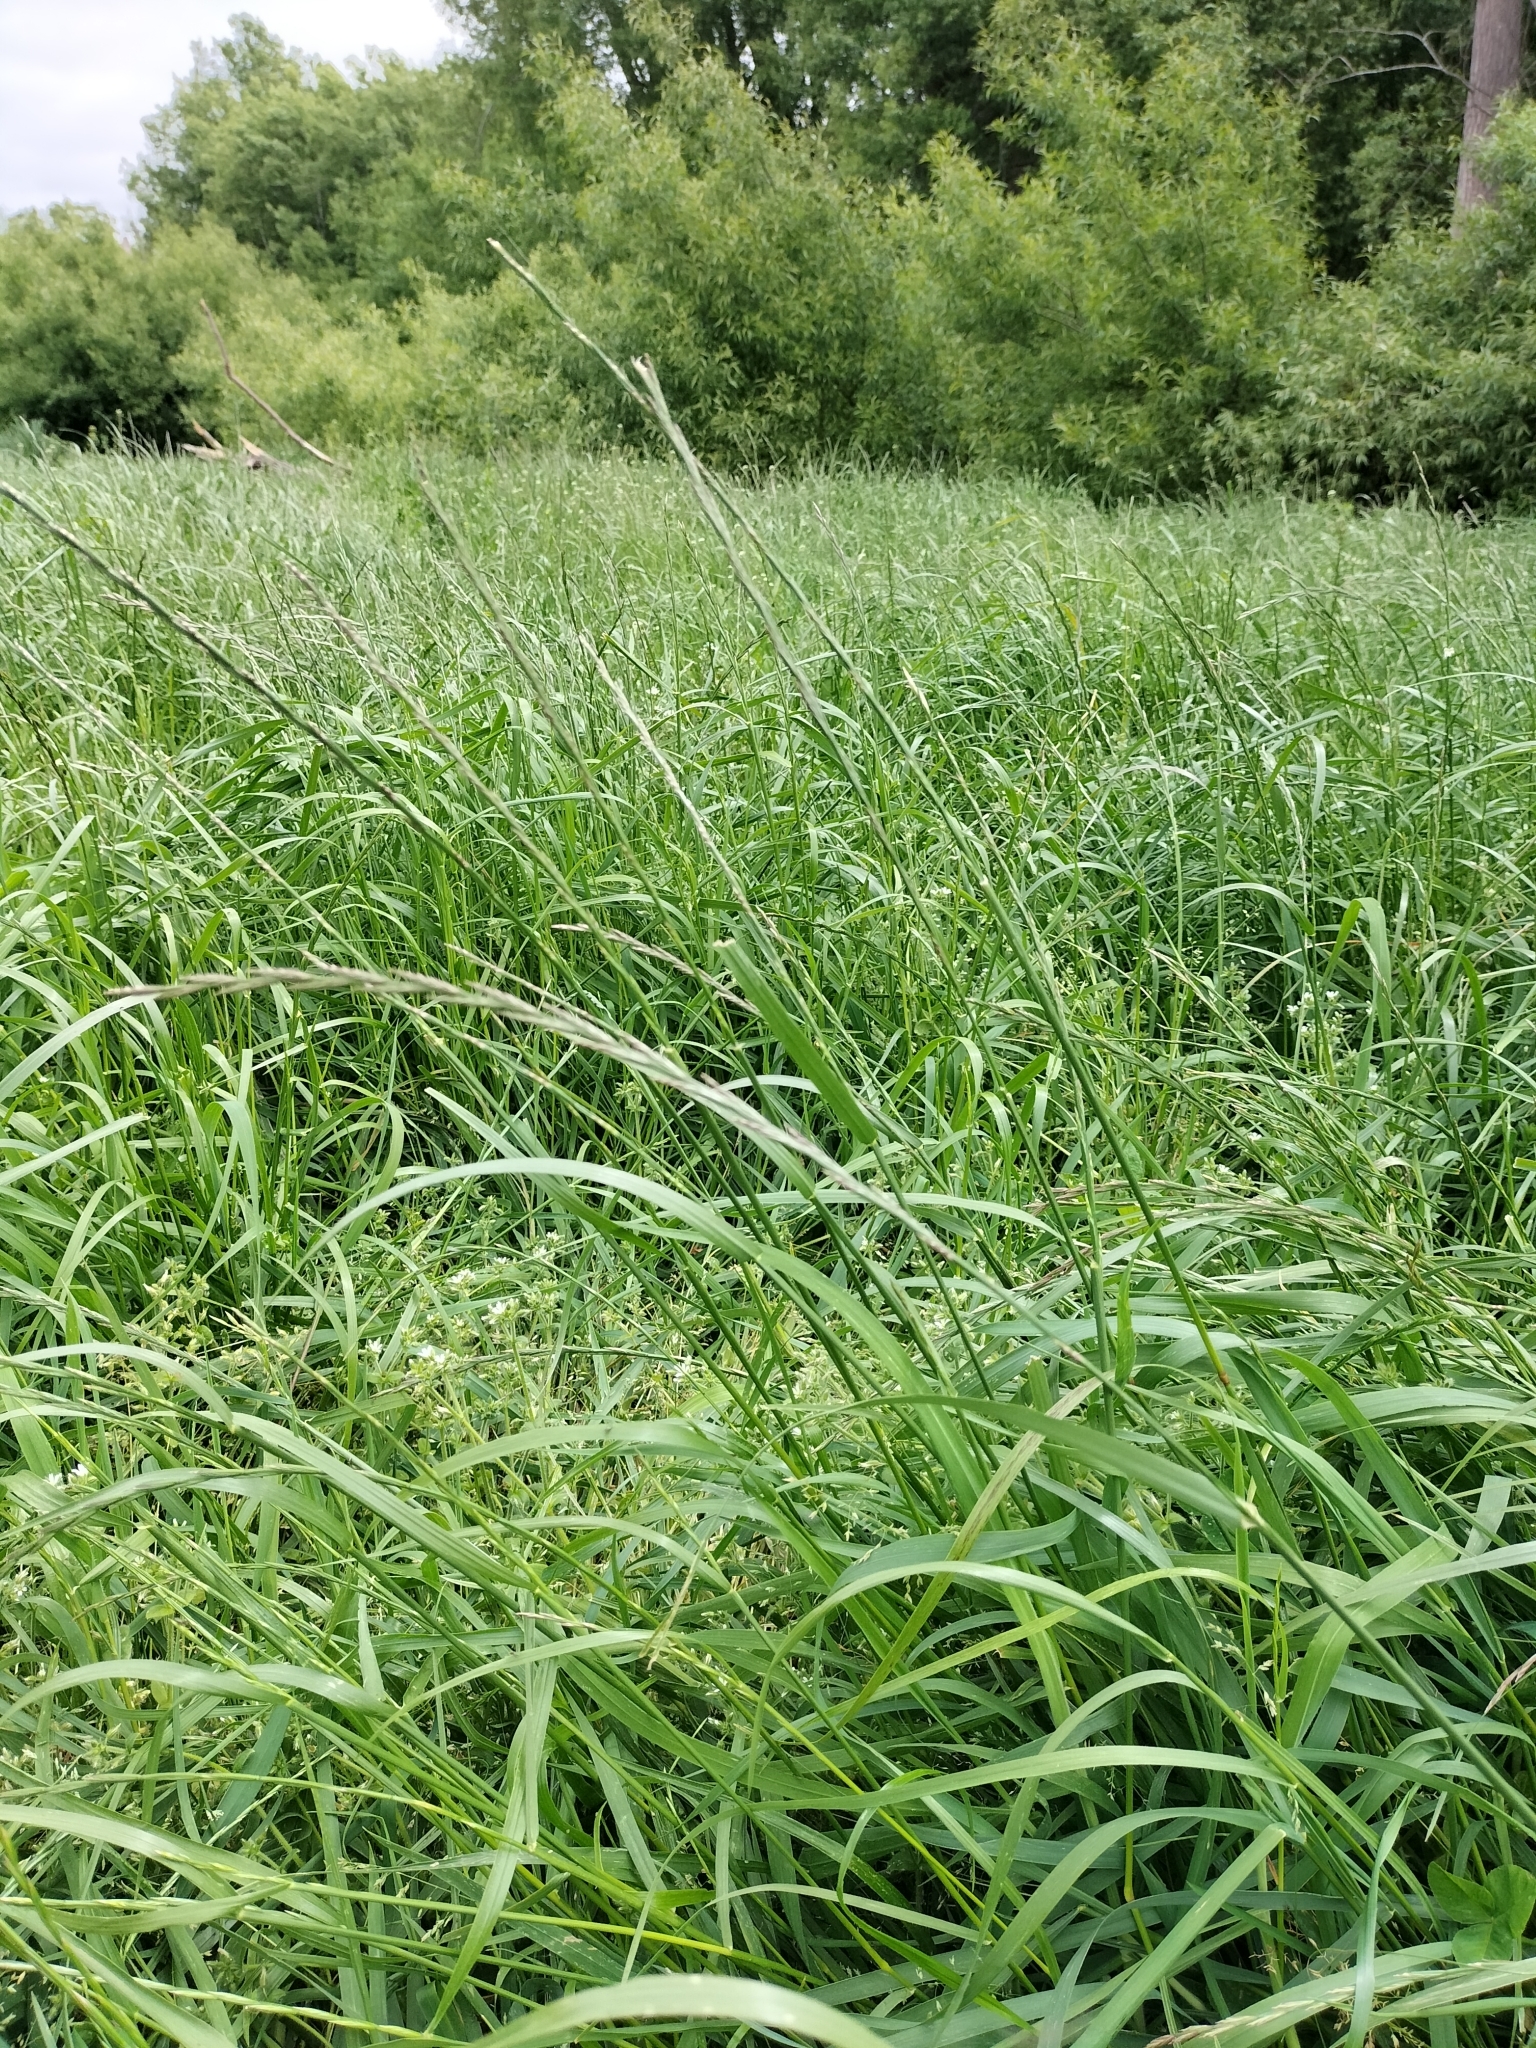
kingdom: Plantae
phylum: Tracheophyta
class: Liliopsida
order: Poales
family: Poaceae
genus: Lolium
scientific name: Lolium perenne
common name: Perennial ryegrass
